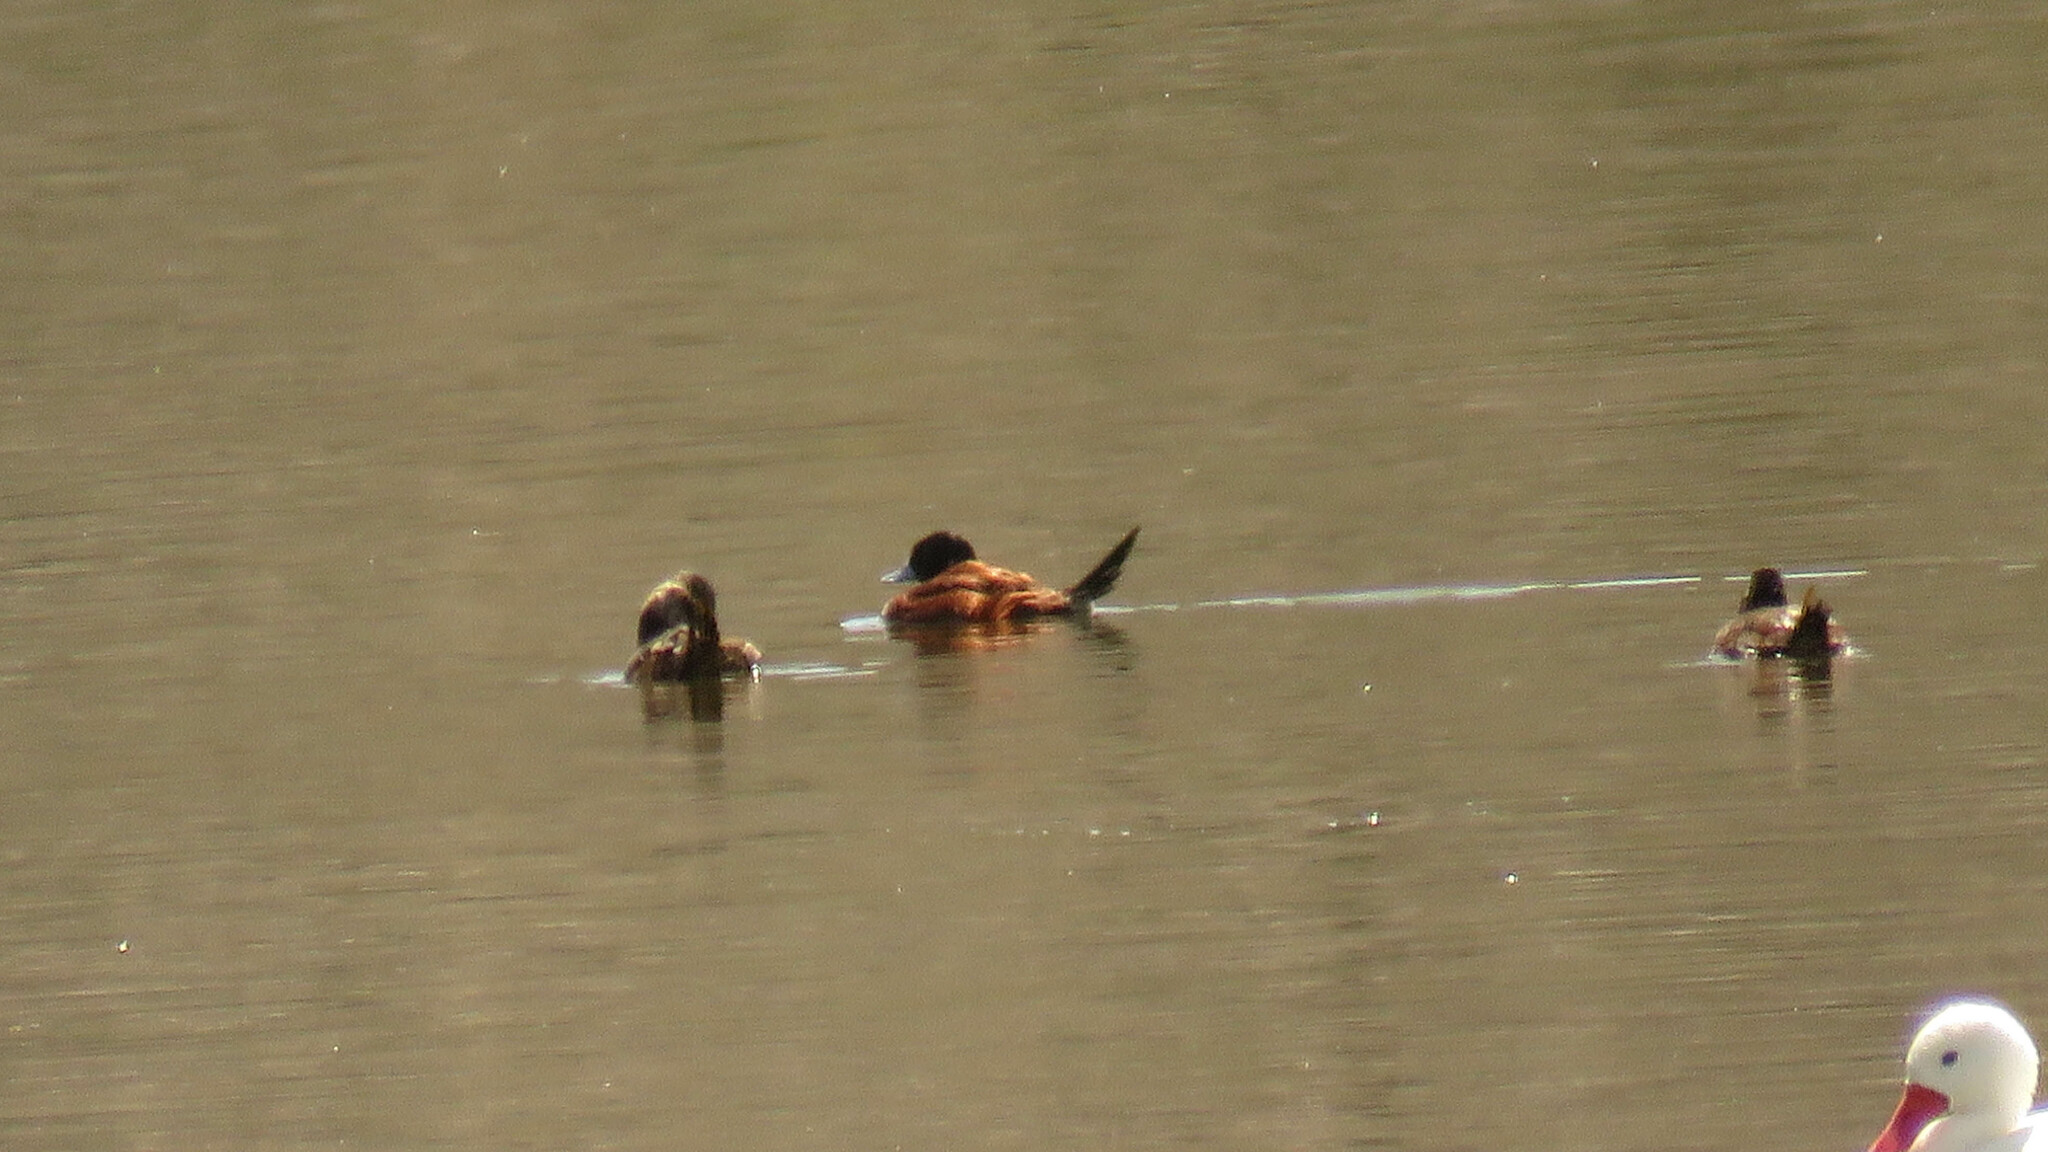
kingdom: Animalia
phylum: Chordata
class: Aves
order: Anseriformes
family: Anatidae
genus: Oxyura
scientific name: Oxyura vittata
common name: Lake duck
